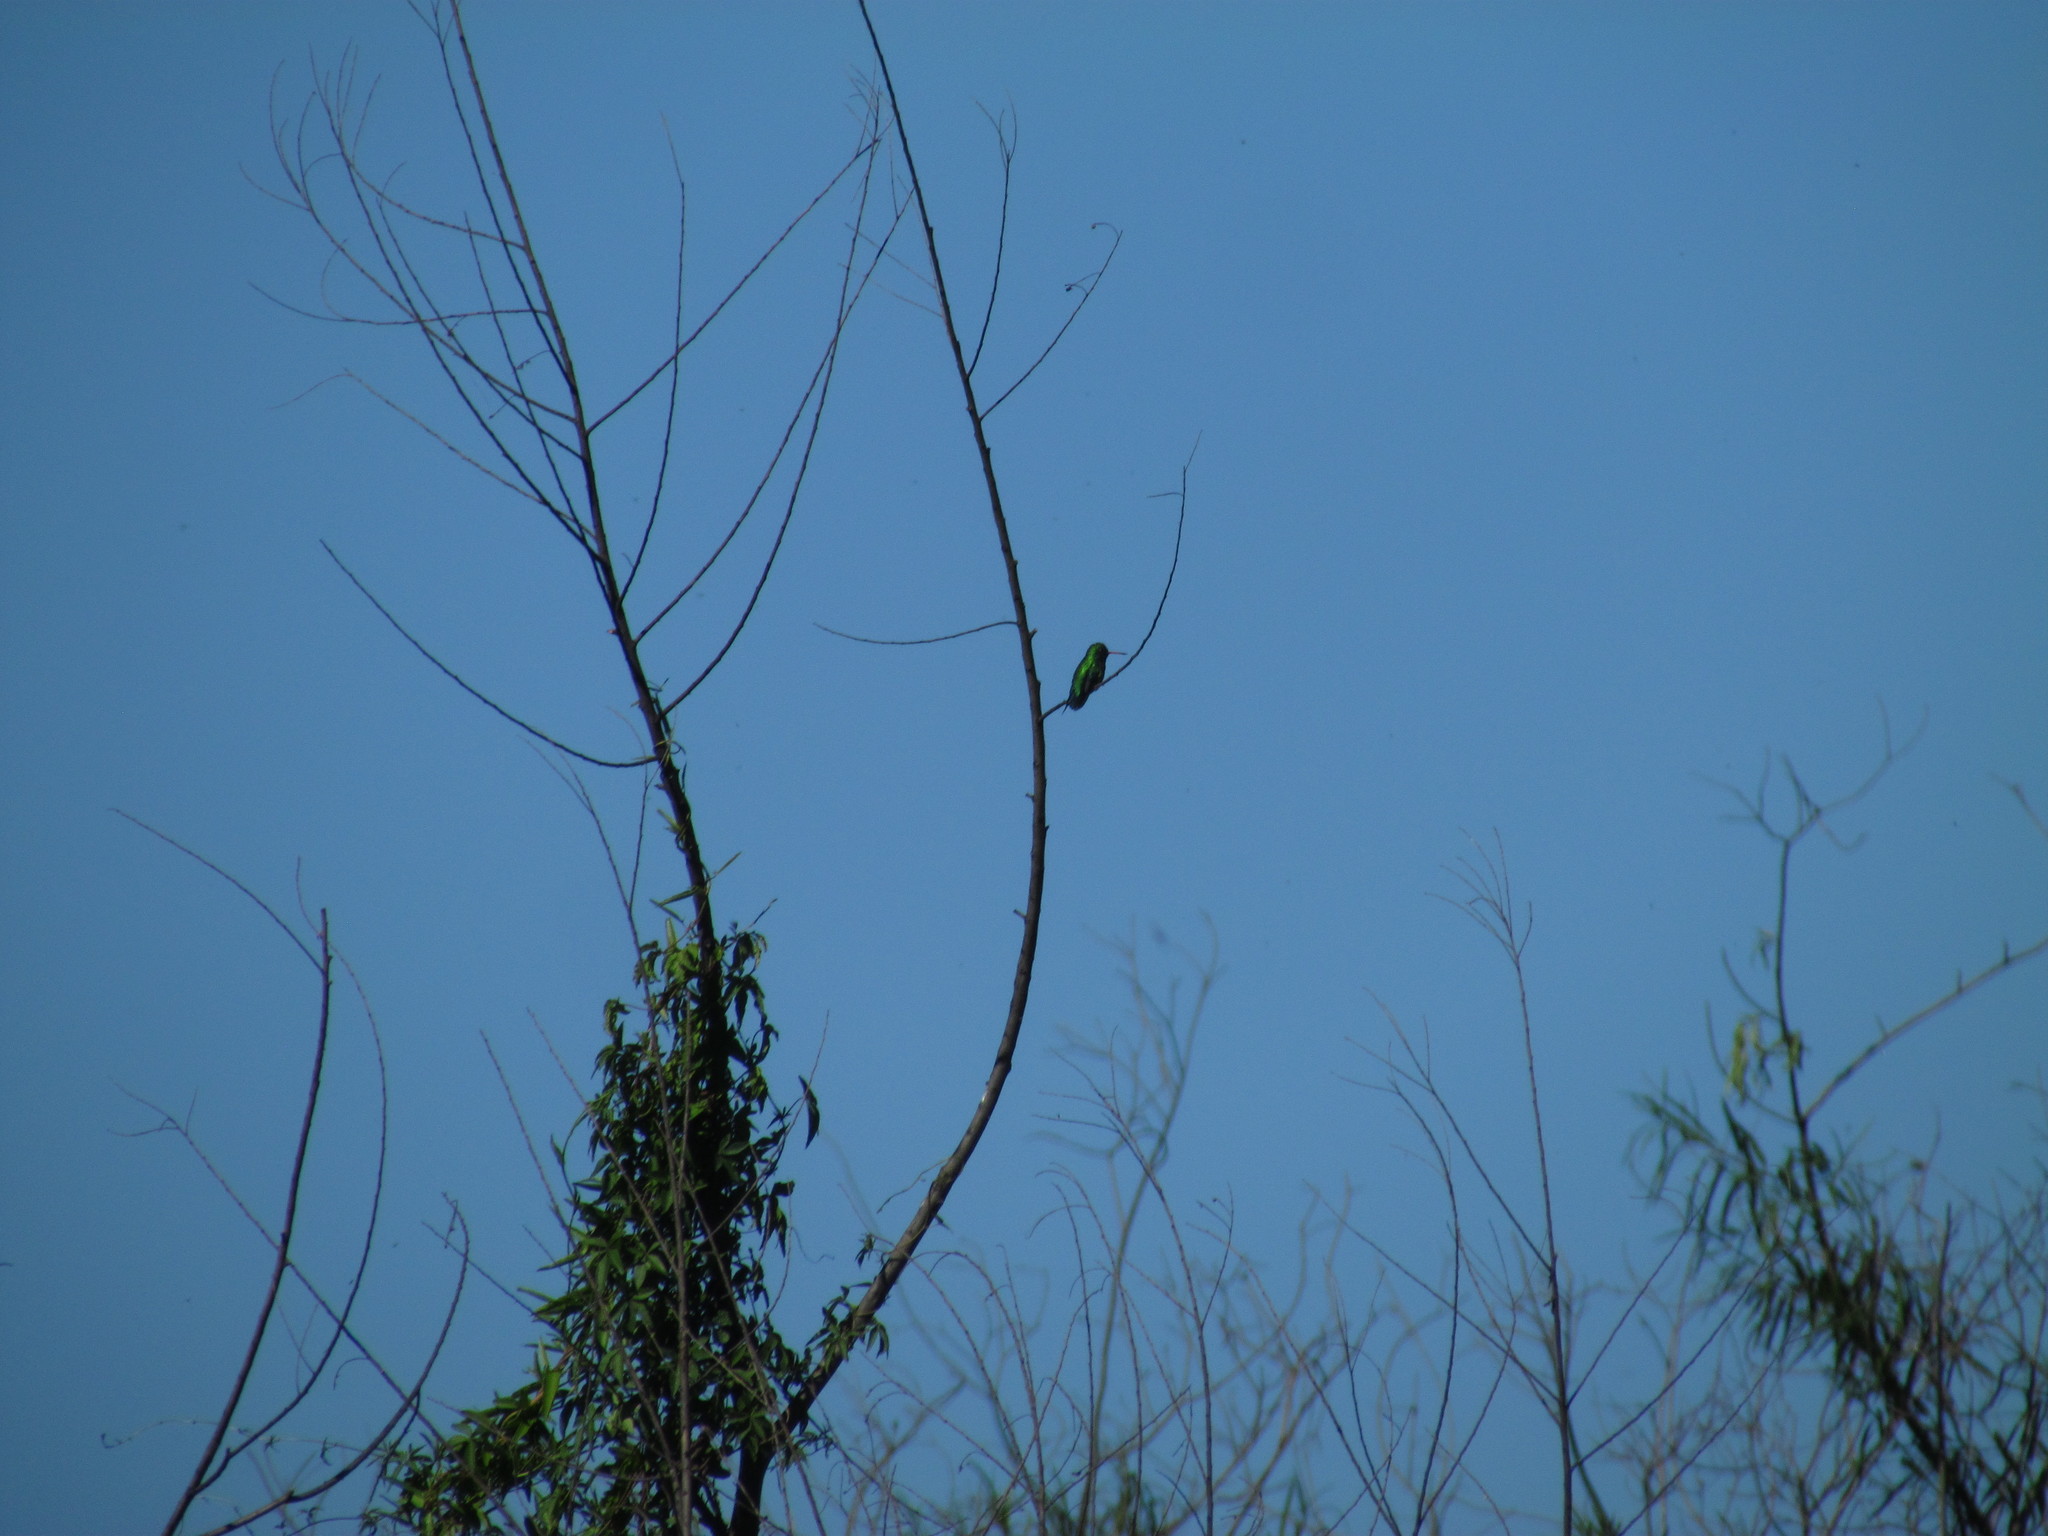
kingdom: Animalia
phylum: Chordata
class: Aves
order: Apodiformes
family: Trochilidae
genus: Chlorostilbon
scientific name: Chlorostilbon lucidus
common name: Glittering-bellied emerald
